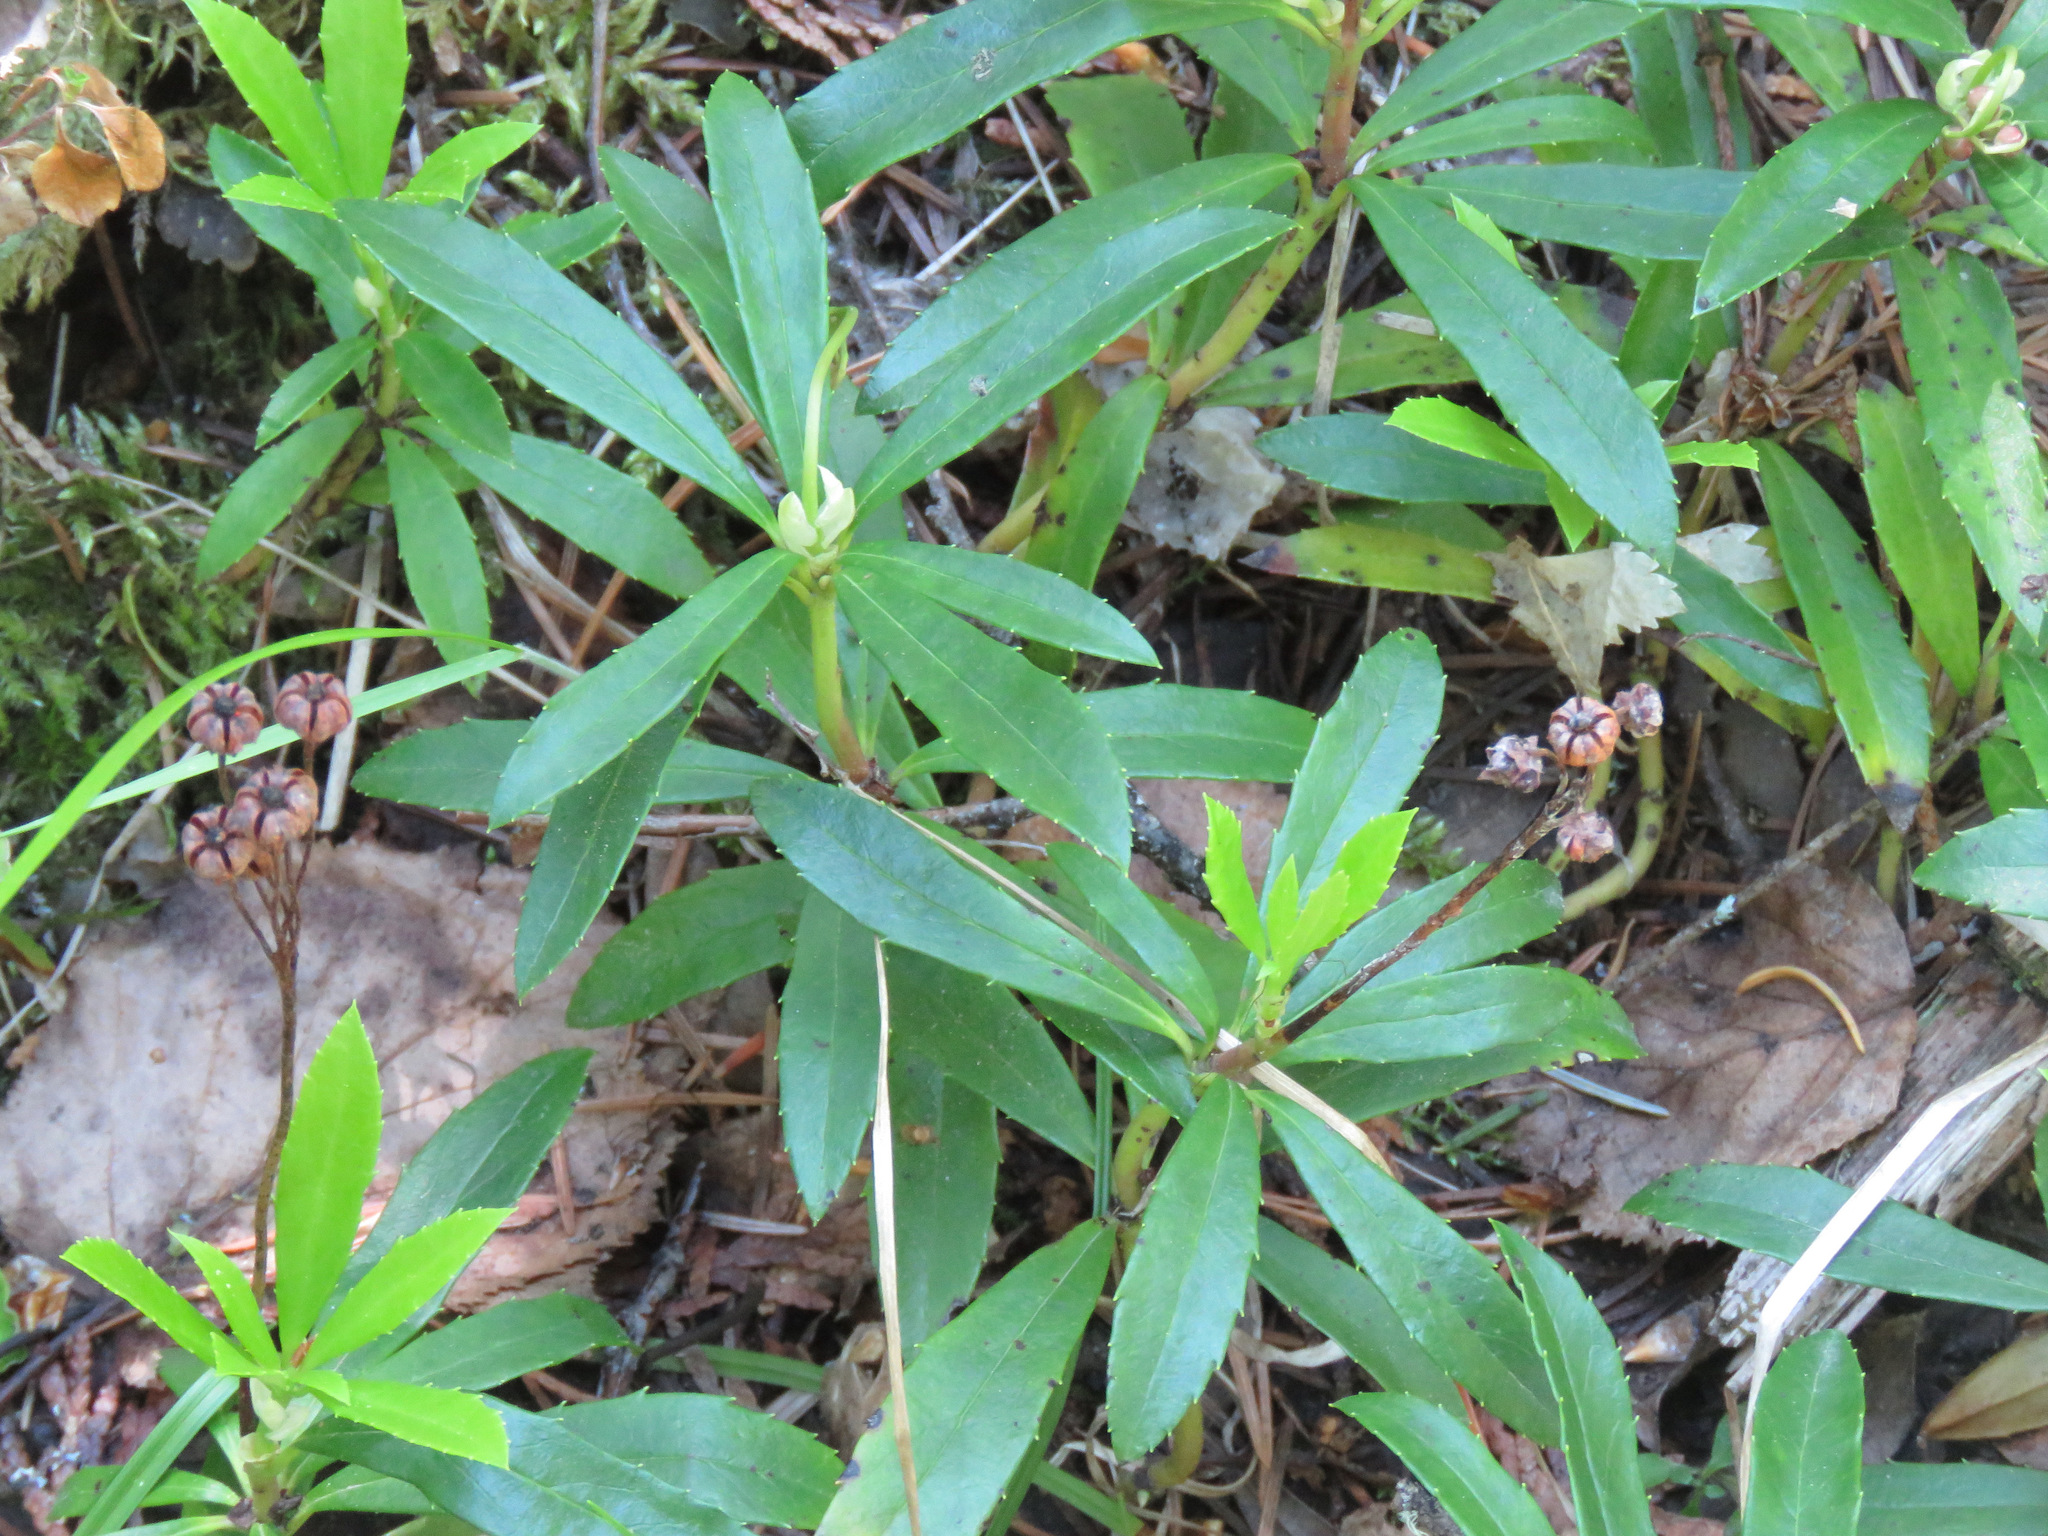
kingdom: Plantae
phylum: Tracheophyta
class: Magnoliopsida
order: Ericales
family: Ericaceae
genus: Chimaphila
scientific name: Chimaphila umbellata
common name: Pipsissewa
